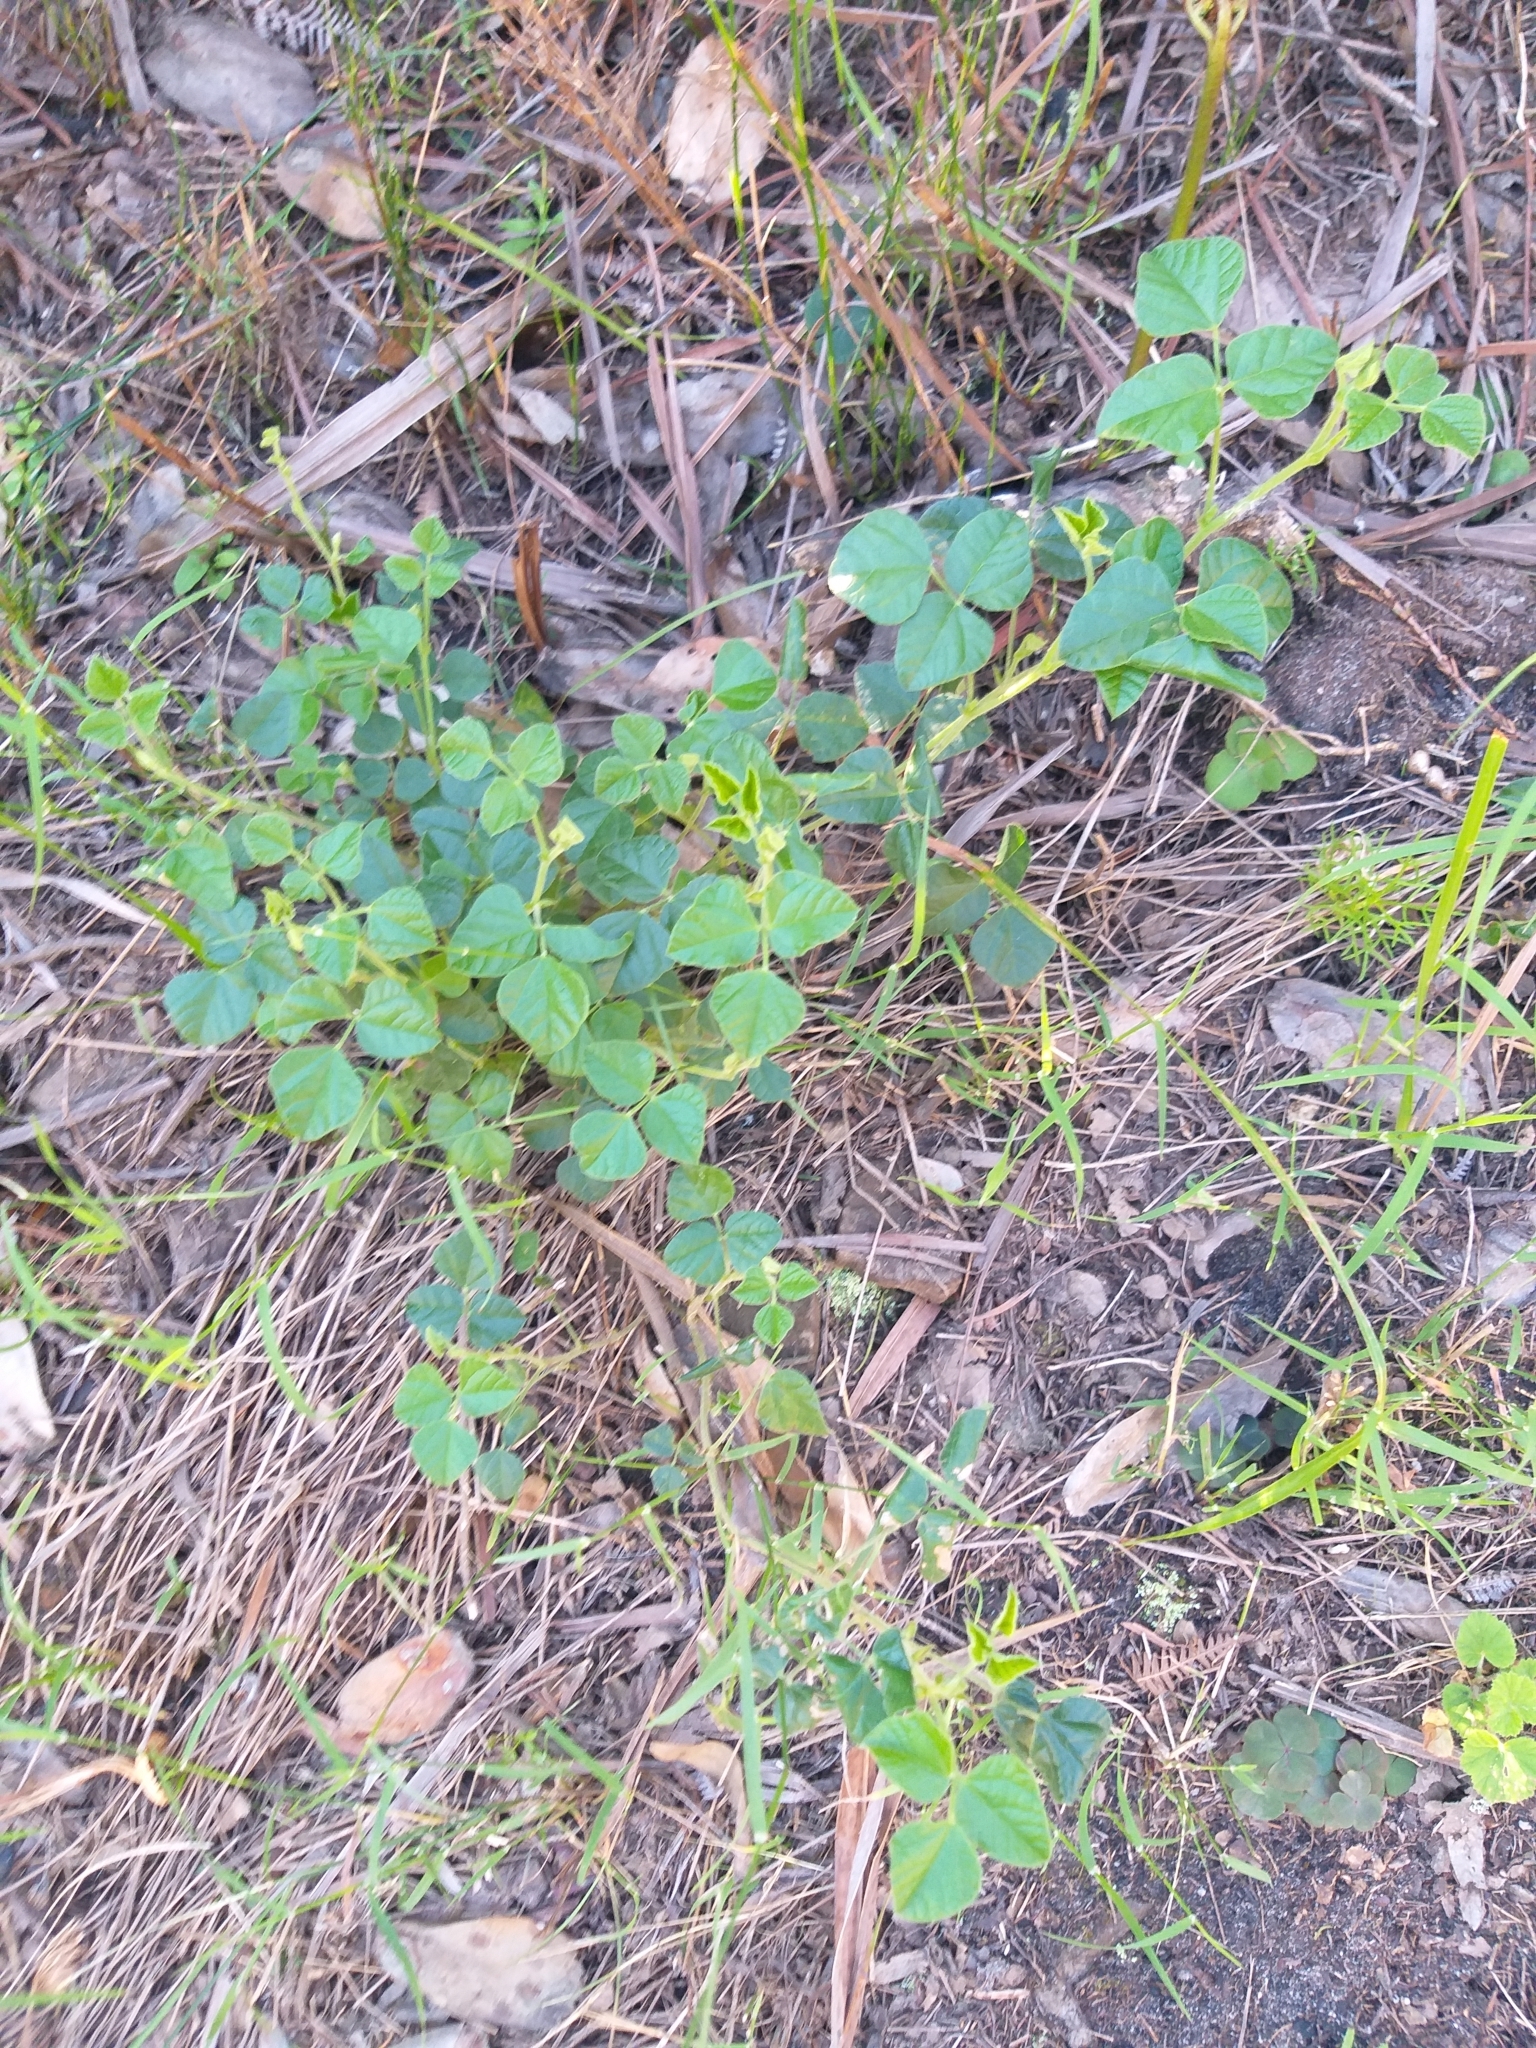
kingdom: Plantae
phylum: Tracheophyta
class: Magnoliopsida
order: Fabales
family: Fabaceae
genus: Bolusafra
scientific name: Bolusafra bituminosa
